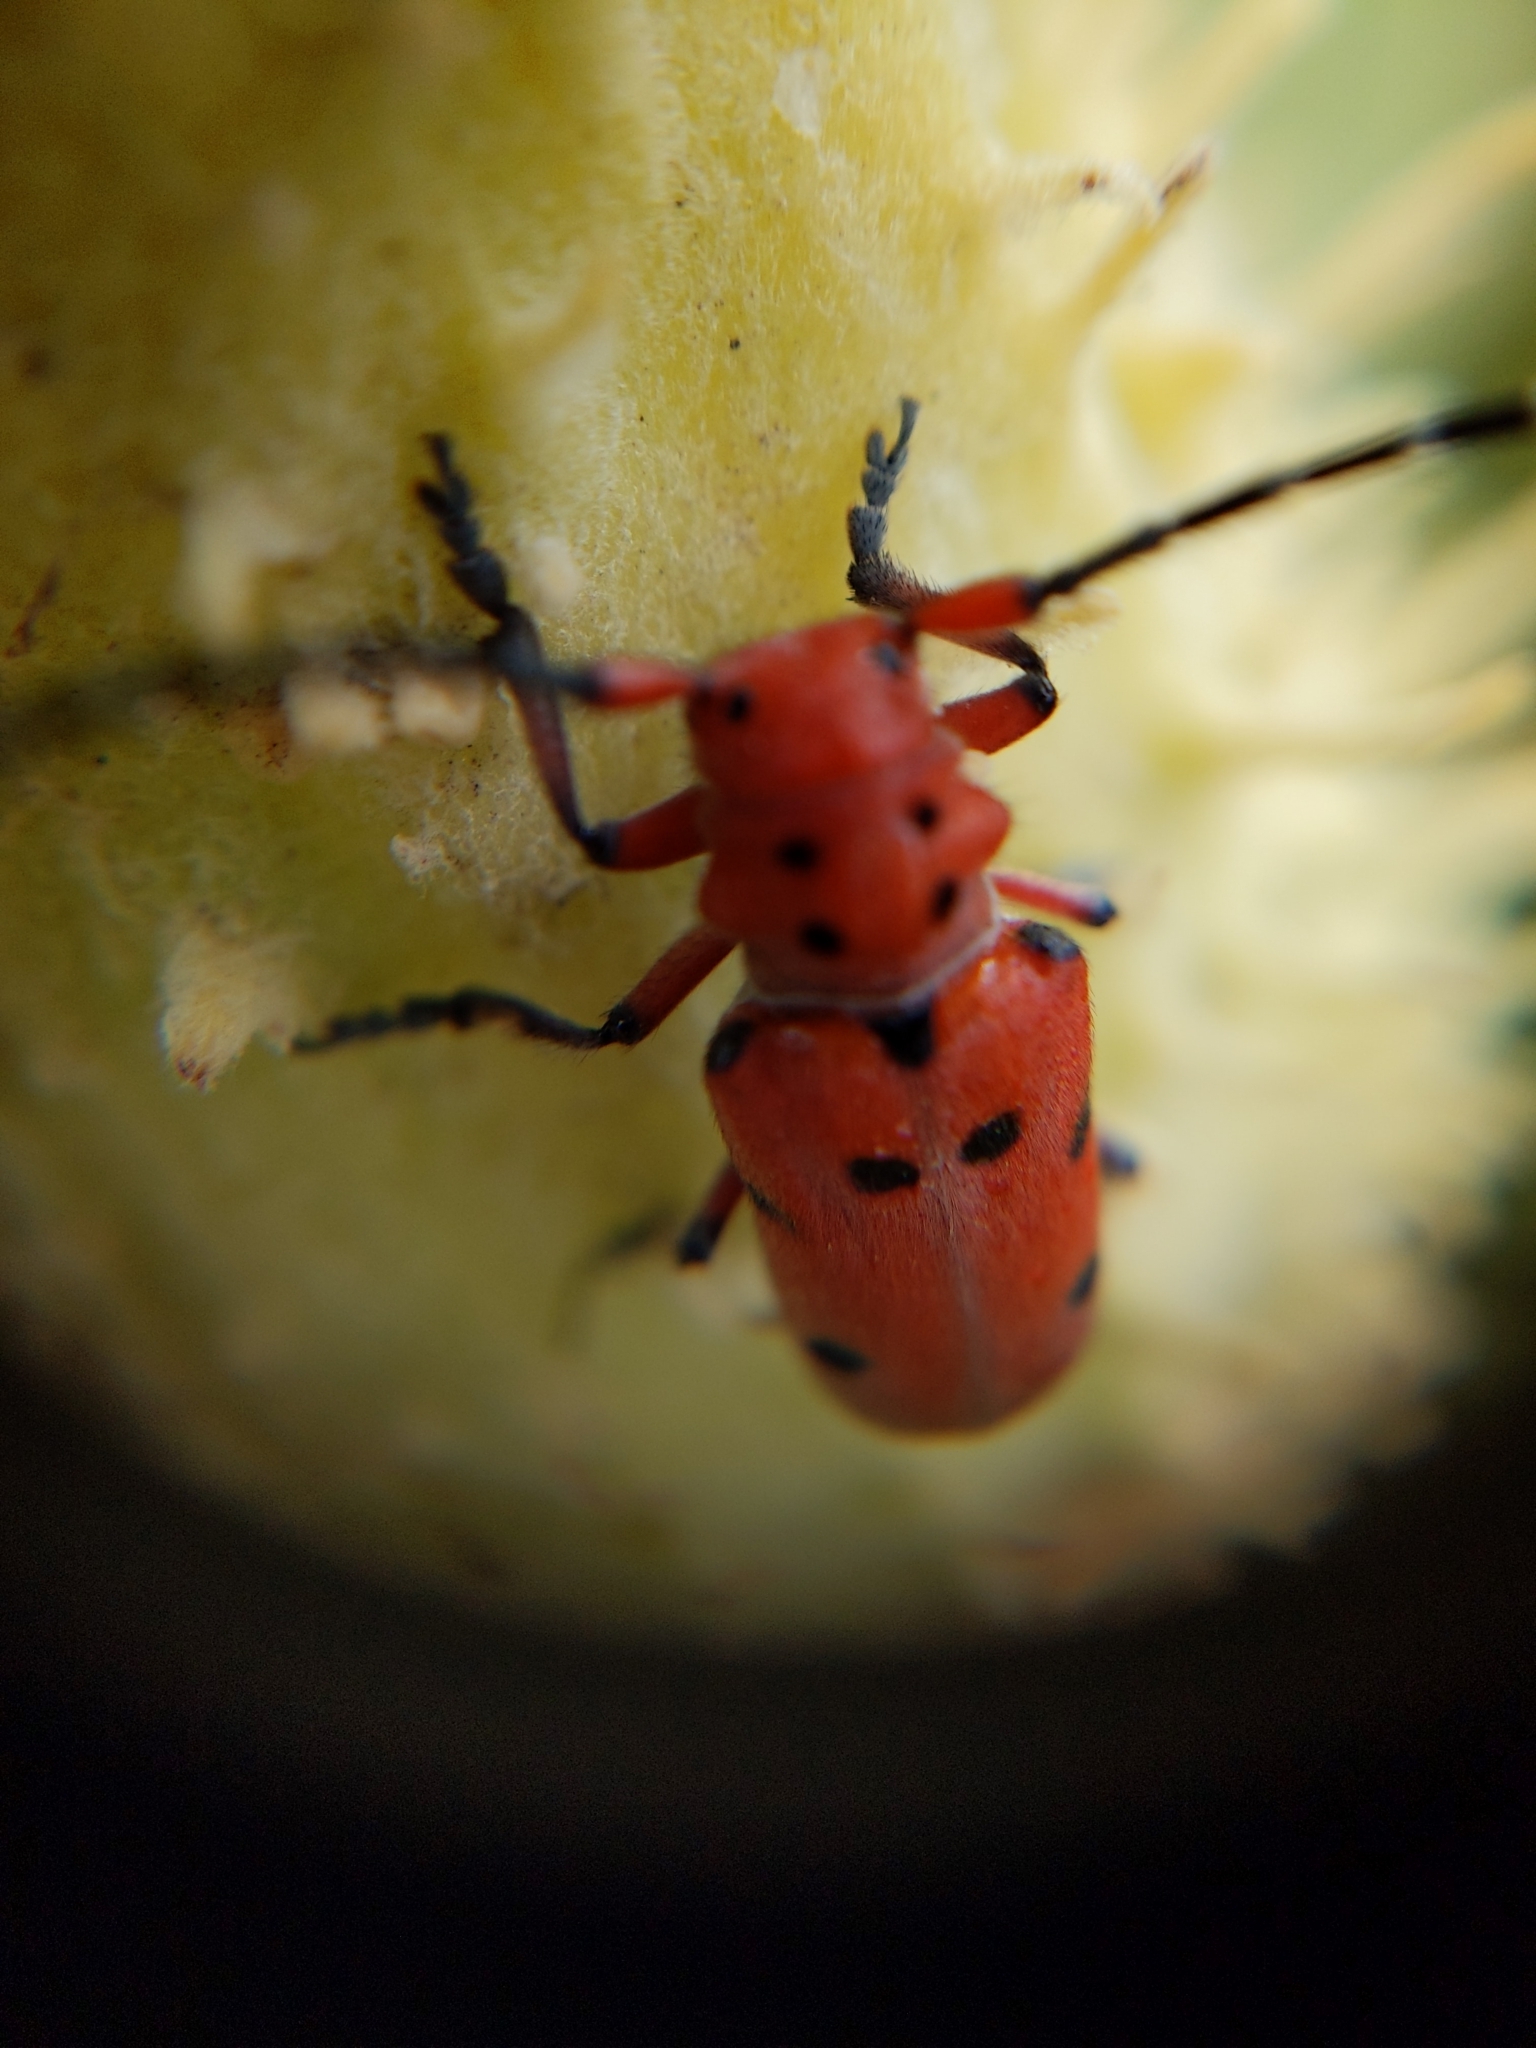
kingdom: Animalia
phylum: Arthropoda
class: Insecta
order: Coleoptera
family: Cerambycidae
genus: Tetraopes
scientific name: Tetraopes femoratus
